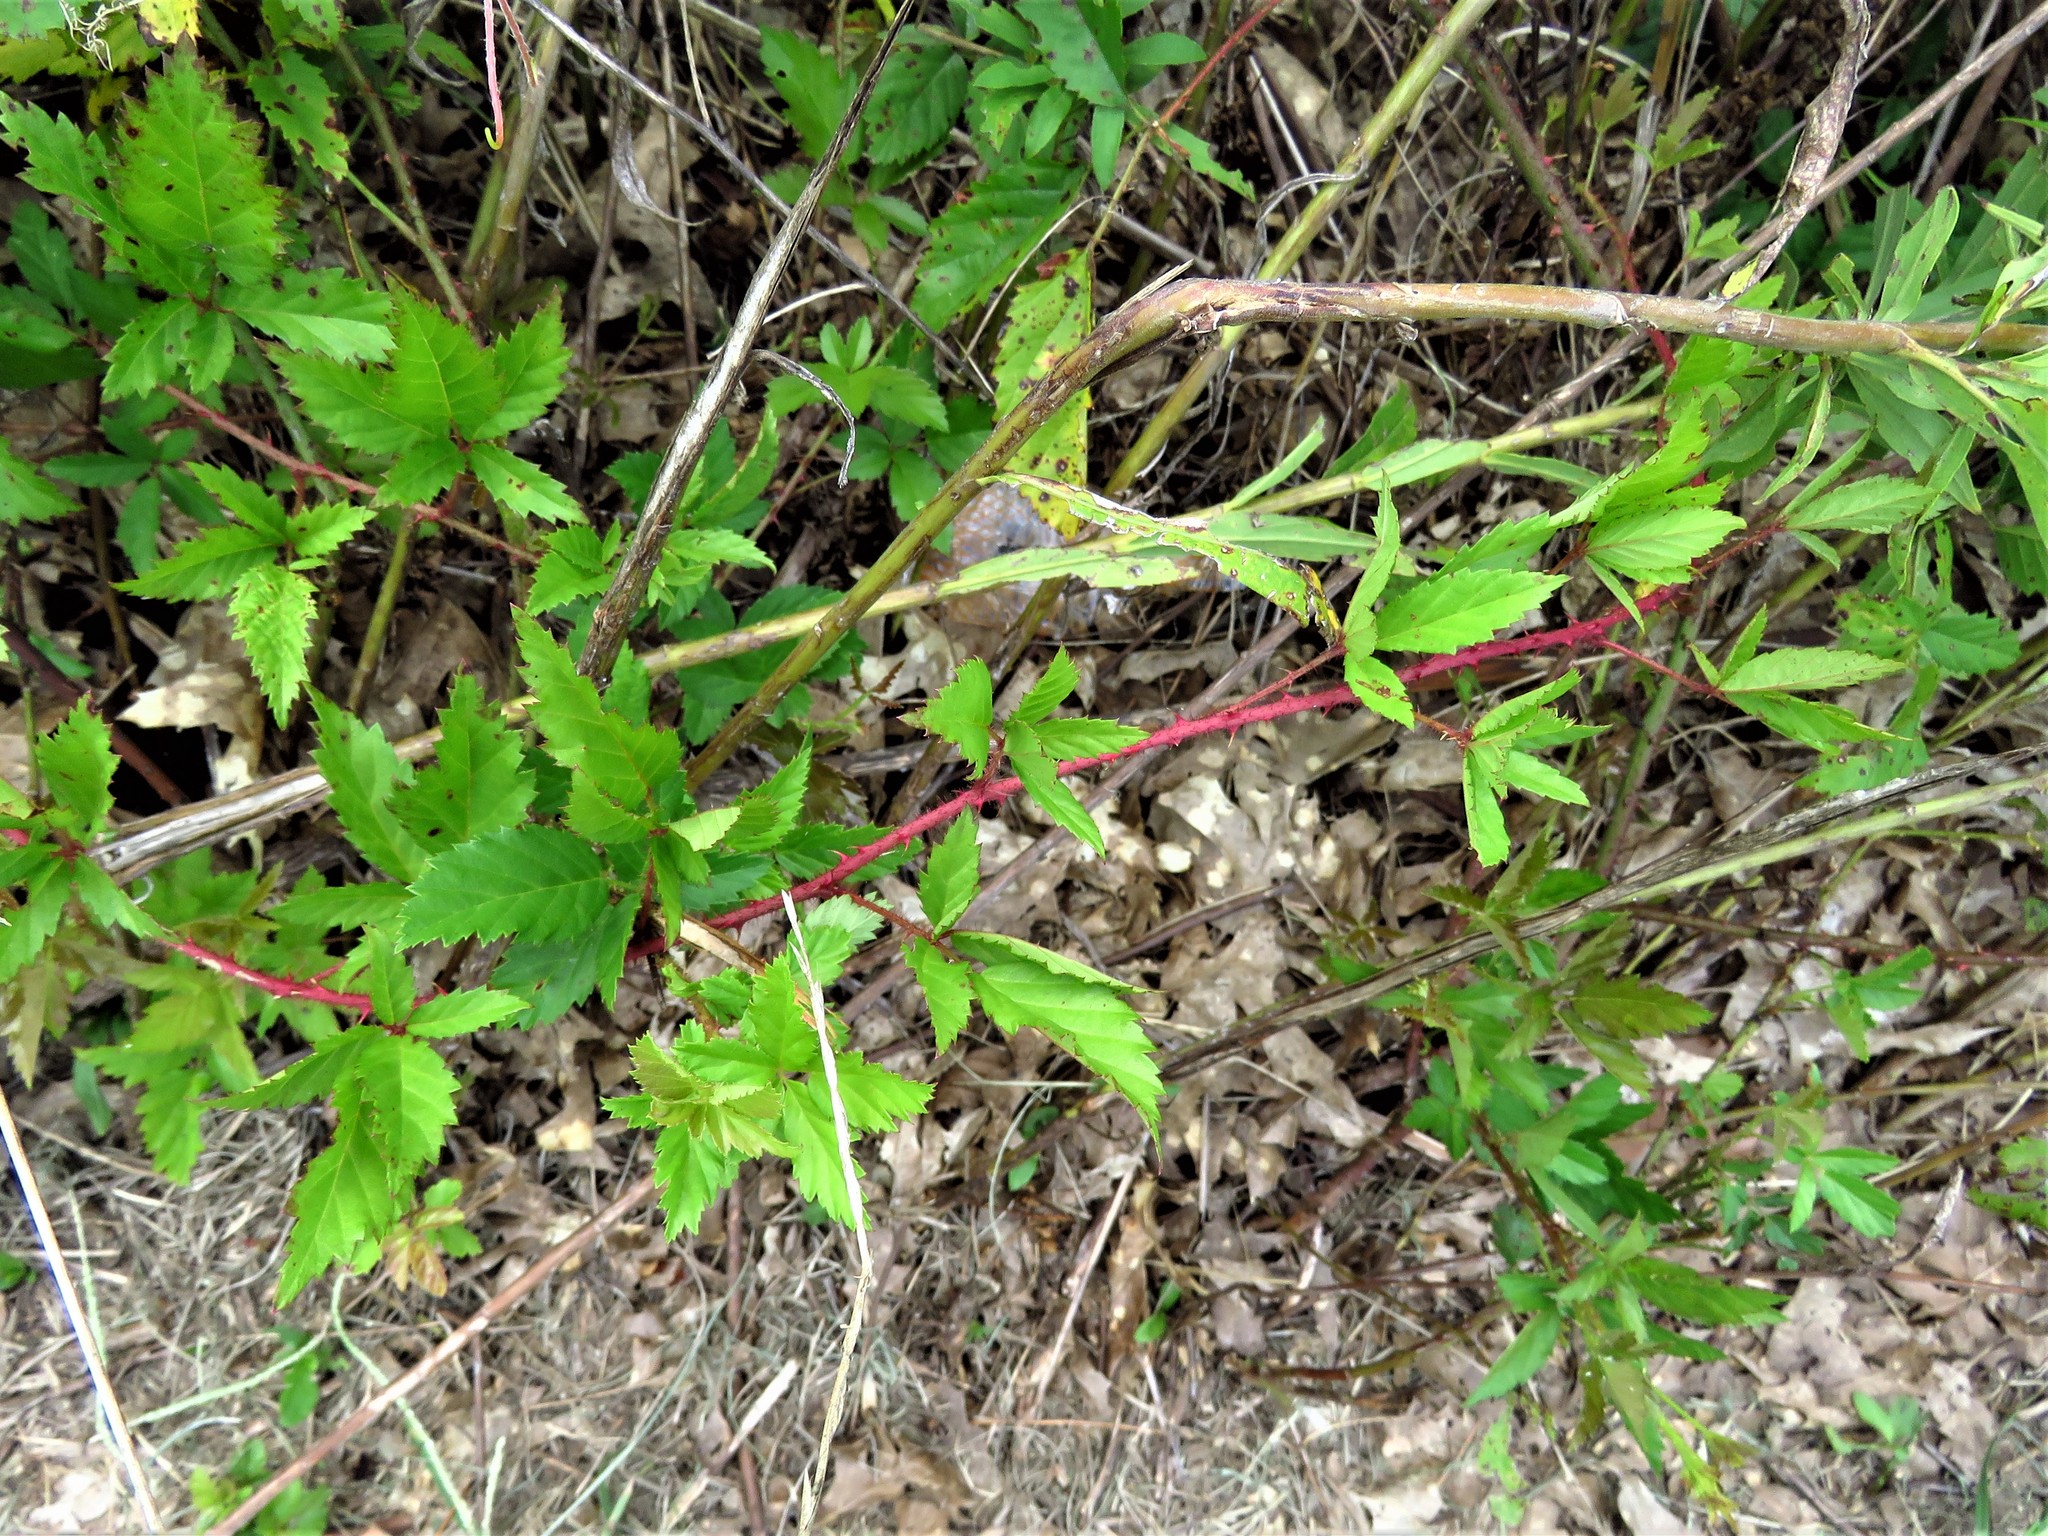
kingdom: Plantae
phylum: Tracheophyta
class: Magnoliopsida
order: Rosales
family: Rosaceae
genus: Rubus
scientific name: Rubus trivialis
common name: Southern dewberry
